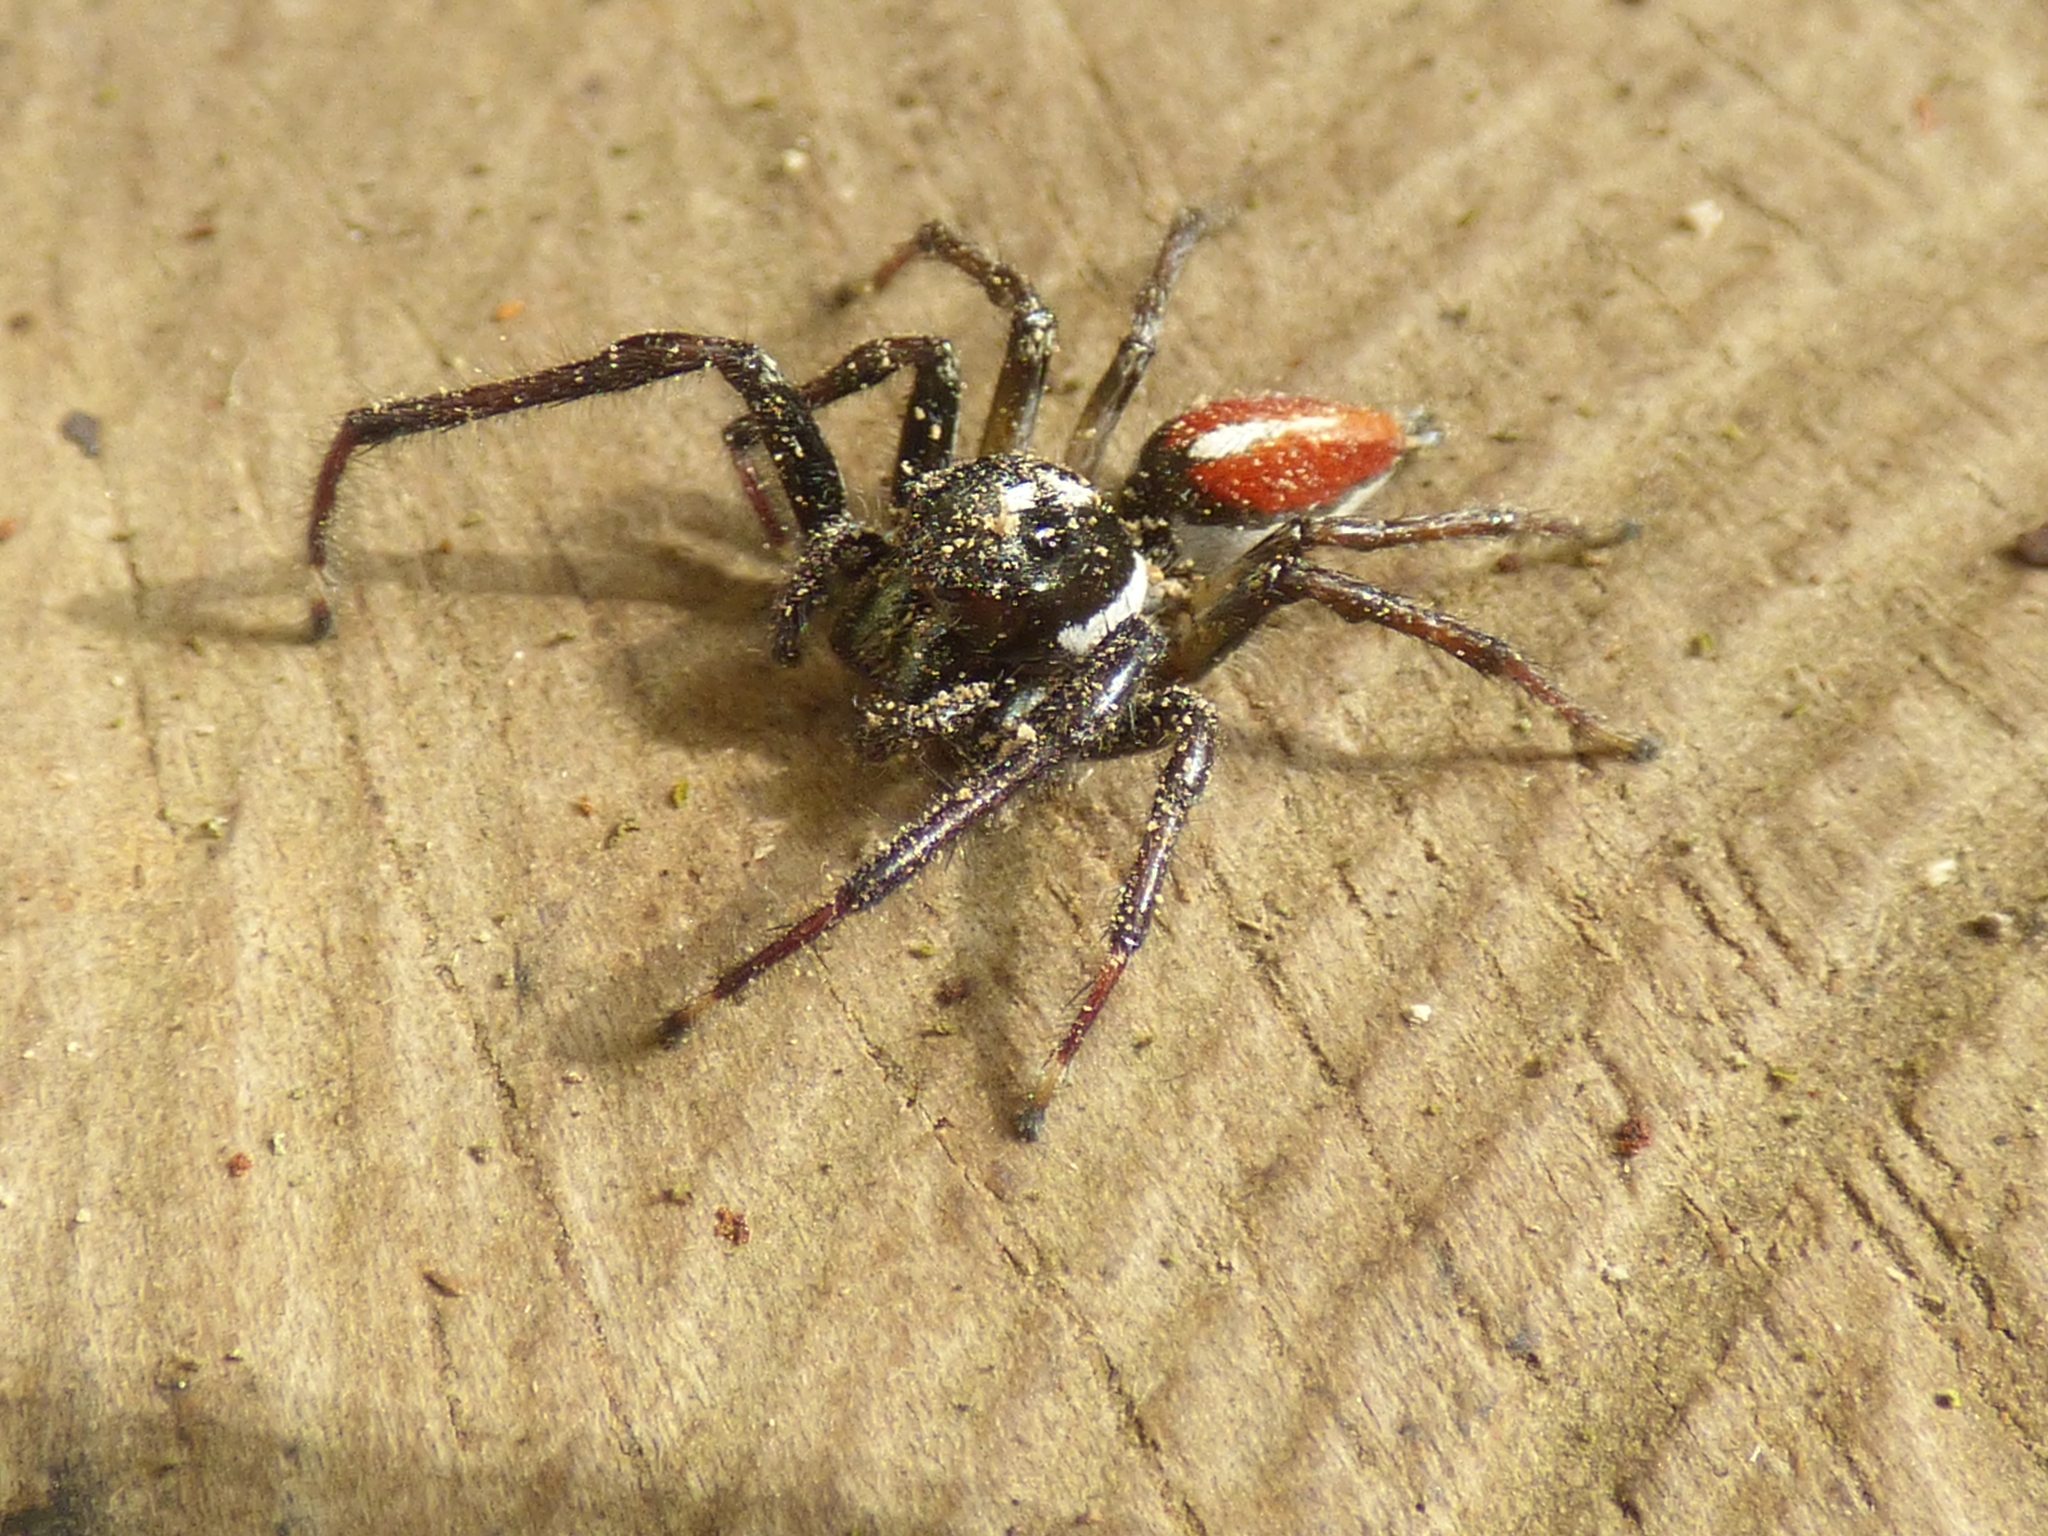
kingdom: Animalia
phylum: Arthropoda
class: Arachnida
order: Araneae
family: Salticidae
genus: Frigga
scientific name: Frigga pratensis
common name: Jumping spiders
